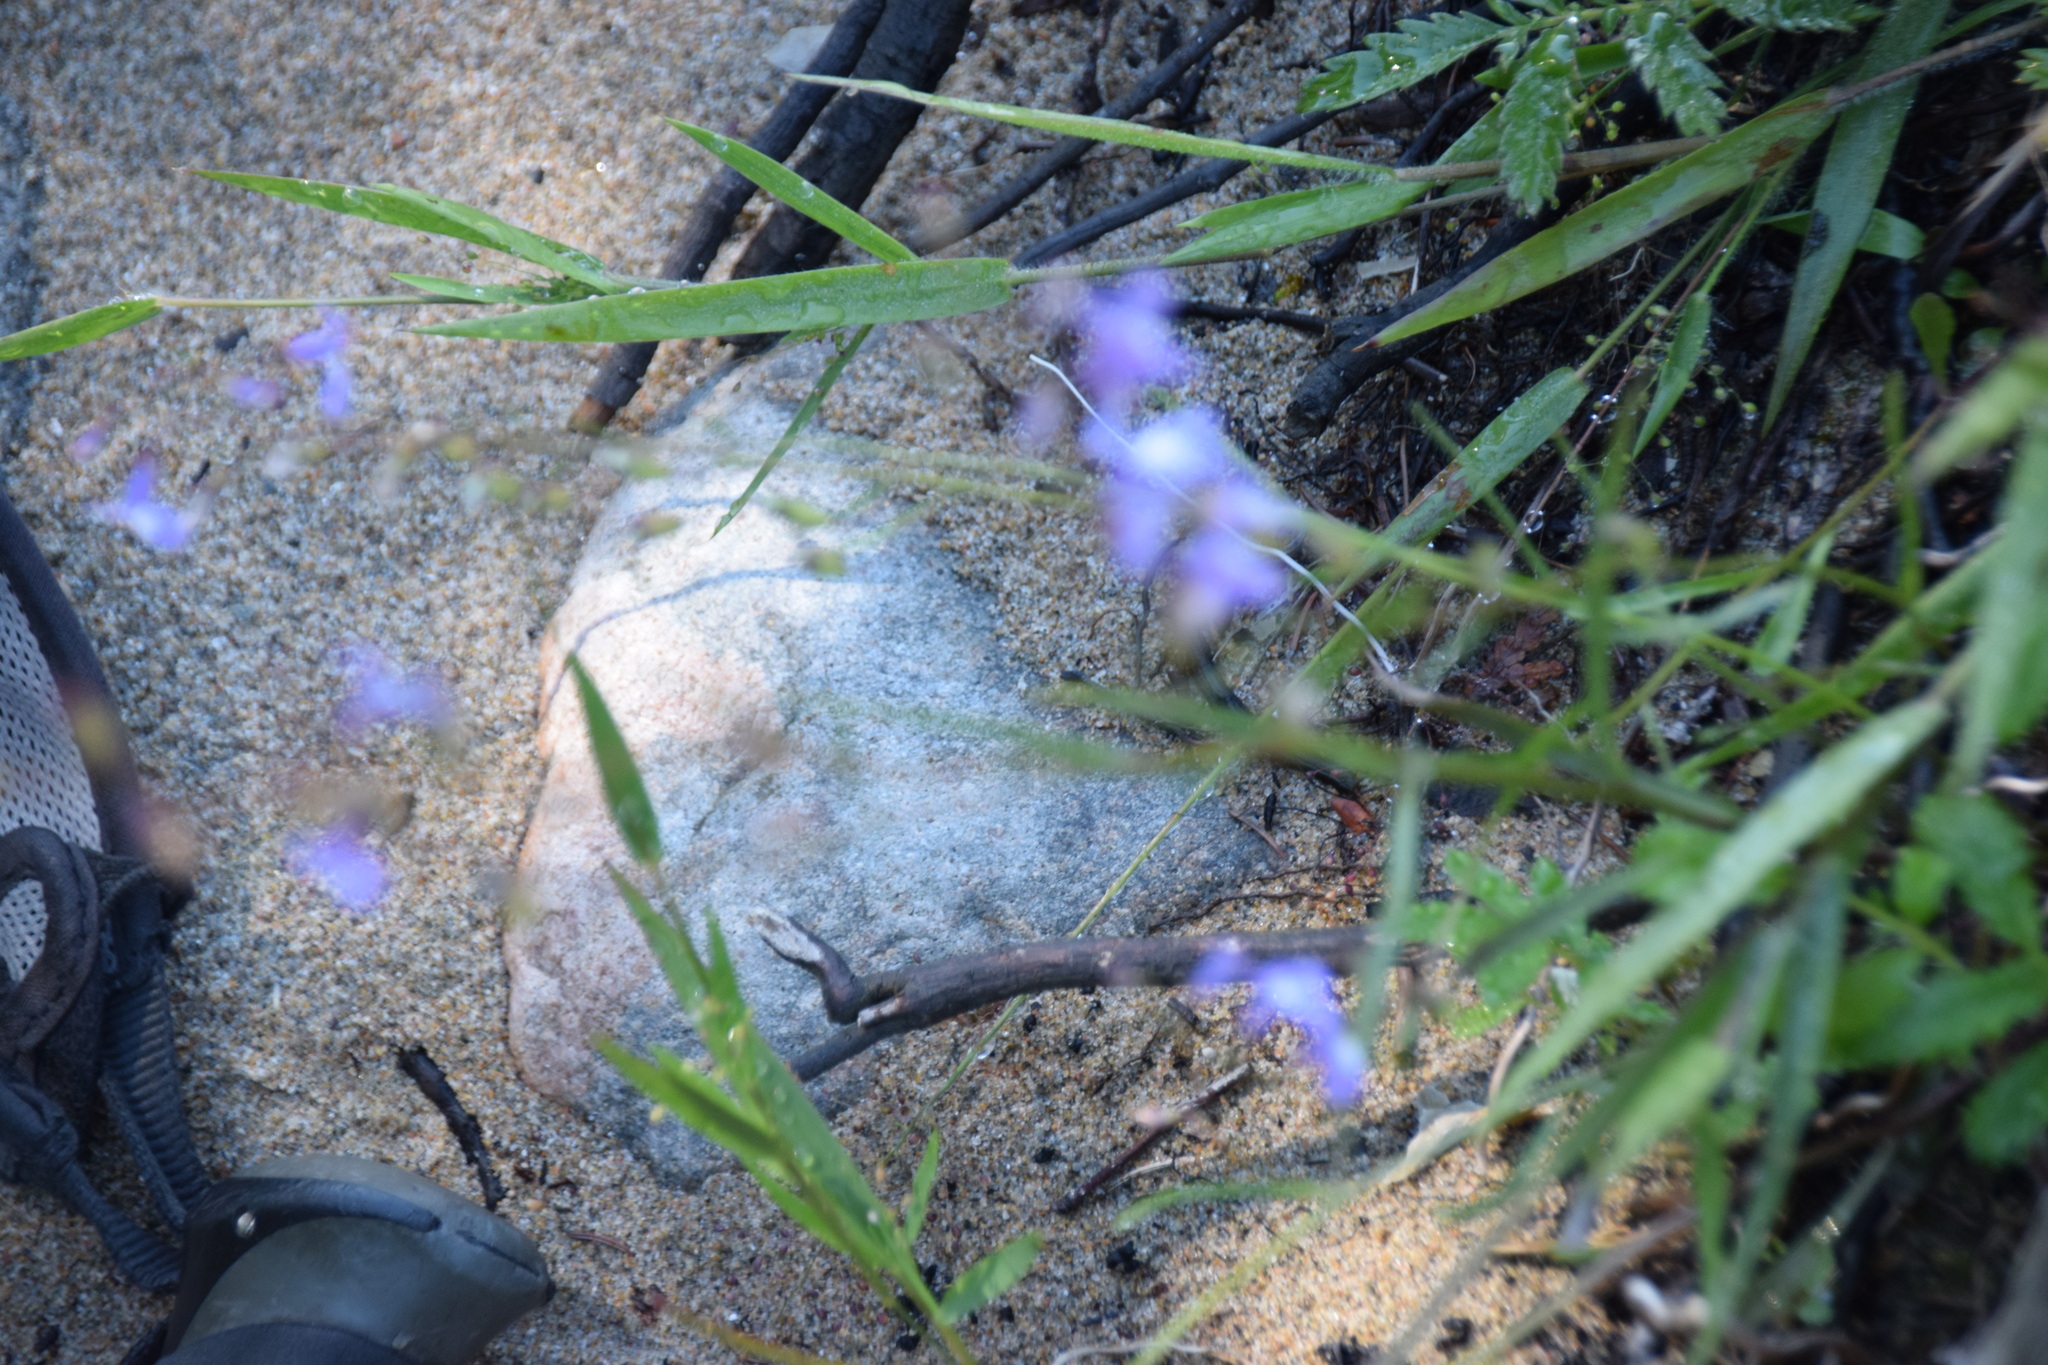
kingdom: Plantae
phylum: Tracheophyta
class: Magnoliopsida
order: Asterales
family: Campanulaceae
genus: Lobelia
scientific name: Lobelia kalmii
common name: Kalm's lobelia
